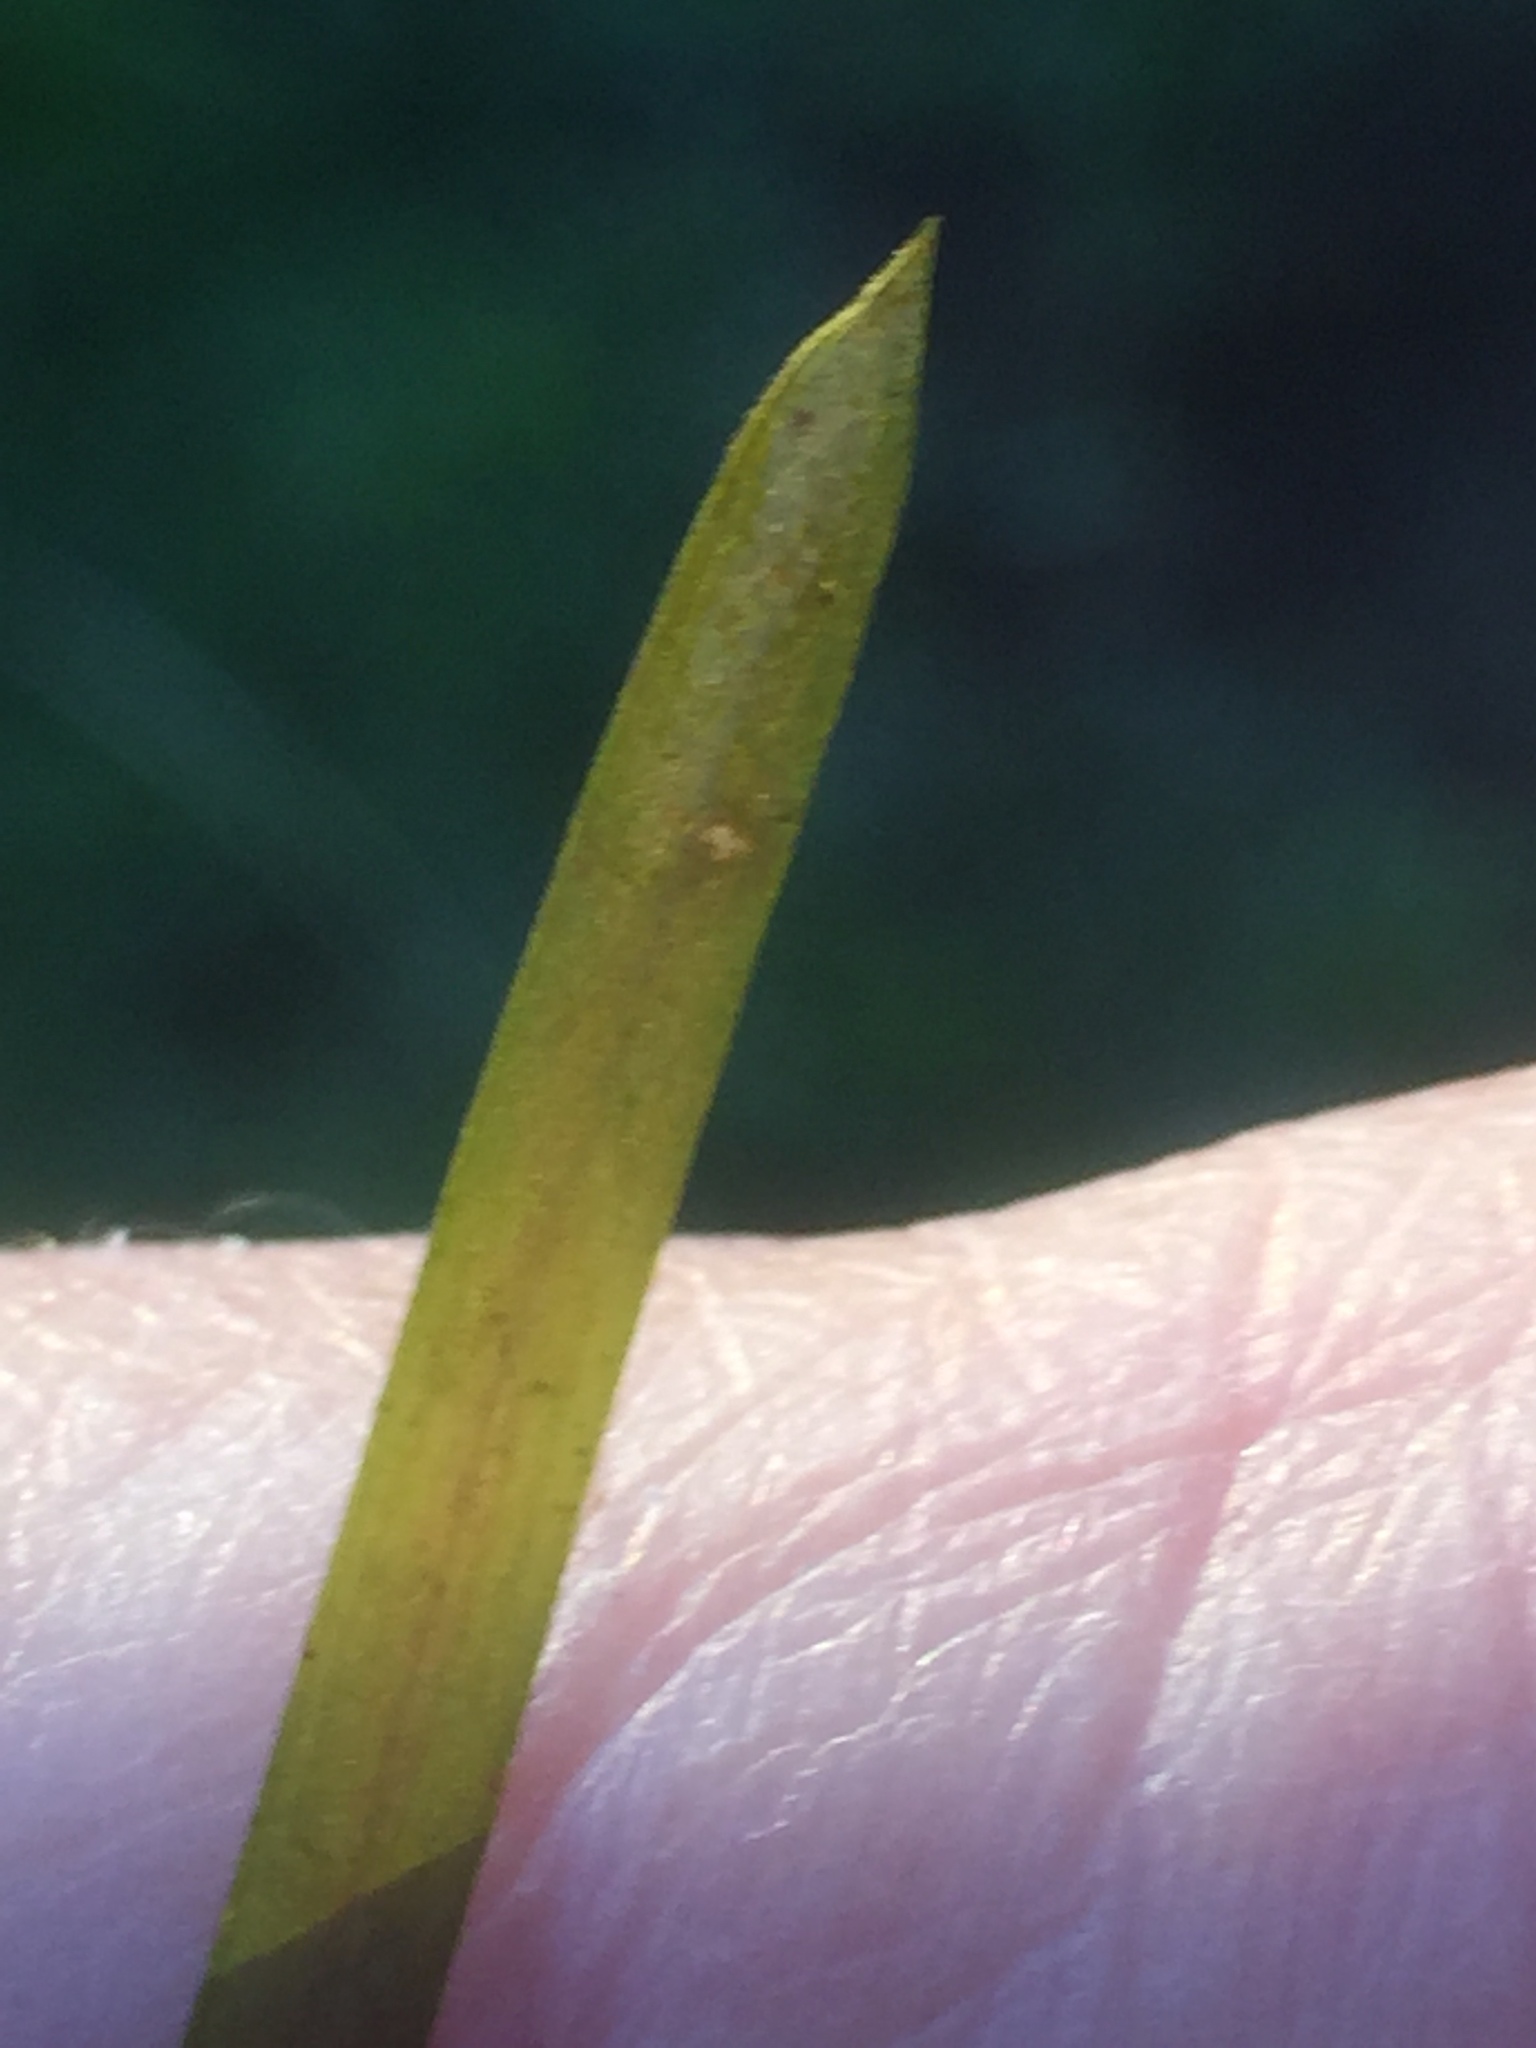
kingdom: Plantae
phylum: Tracheophyta
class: Liliopsida
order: Alismatales
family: Potamogetonaceae
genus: Potamogeton
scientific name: Potamogeton friesii
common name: Flat-stalked pondweed
